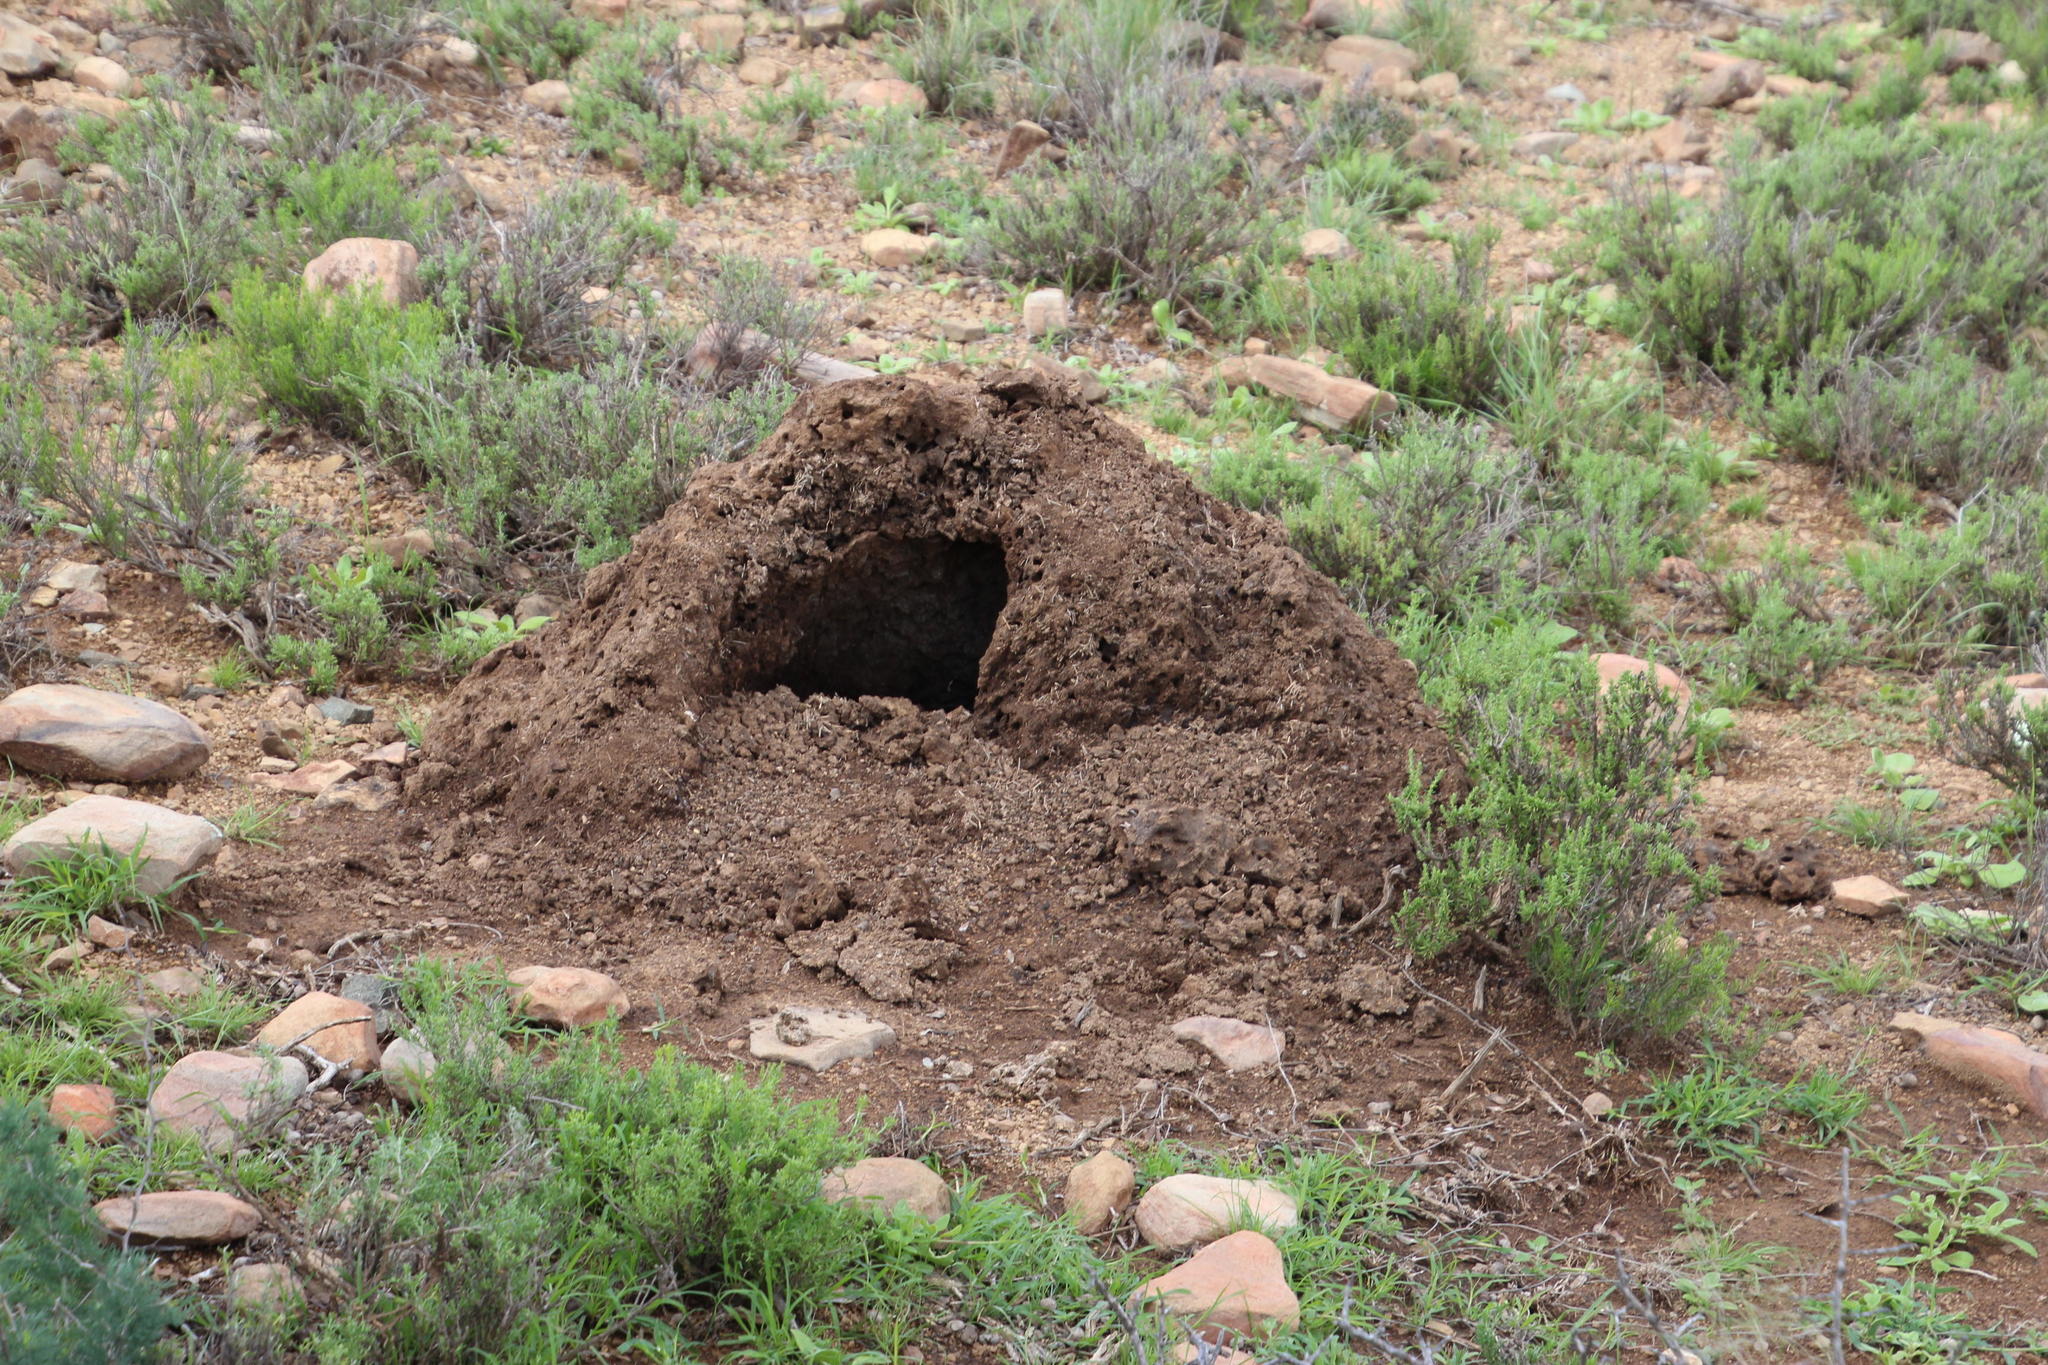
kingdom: Animalia
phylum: Chordata
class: Mammalia
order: Tubulidentata
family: Orycteropodidae
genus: Orycteropus
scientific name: Orycteropus afer
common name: Aardvark
